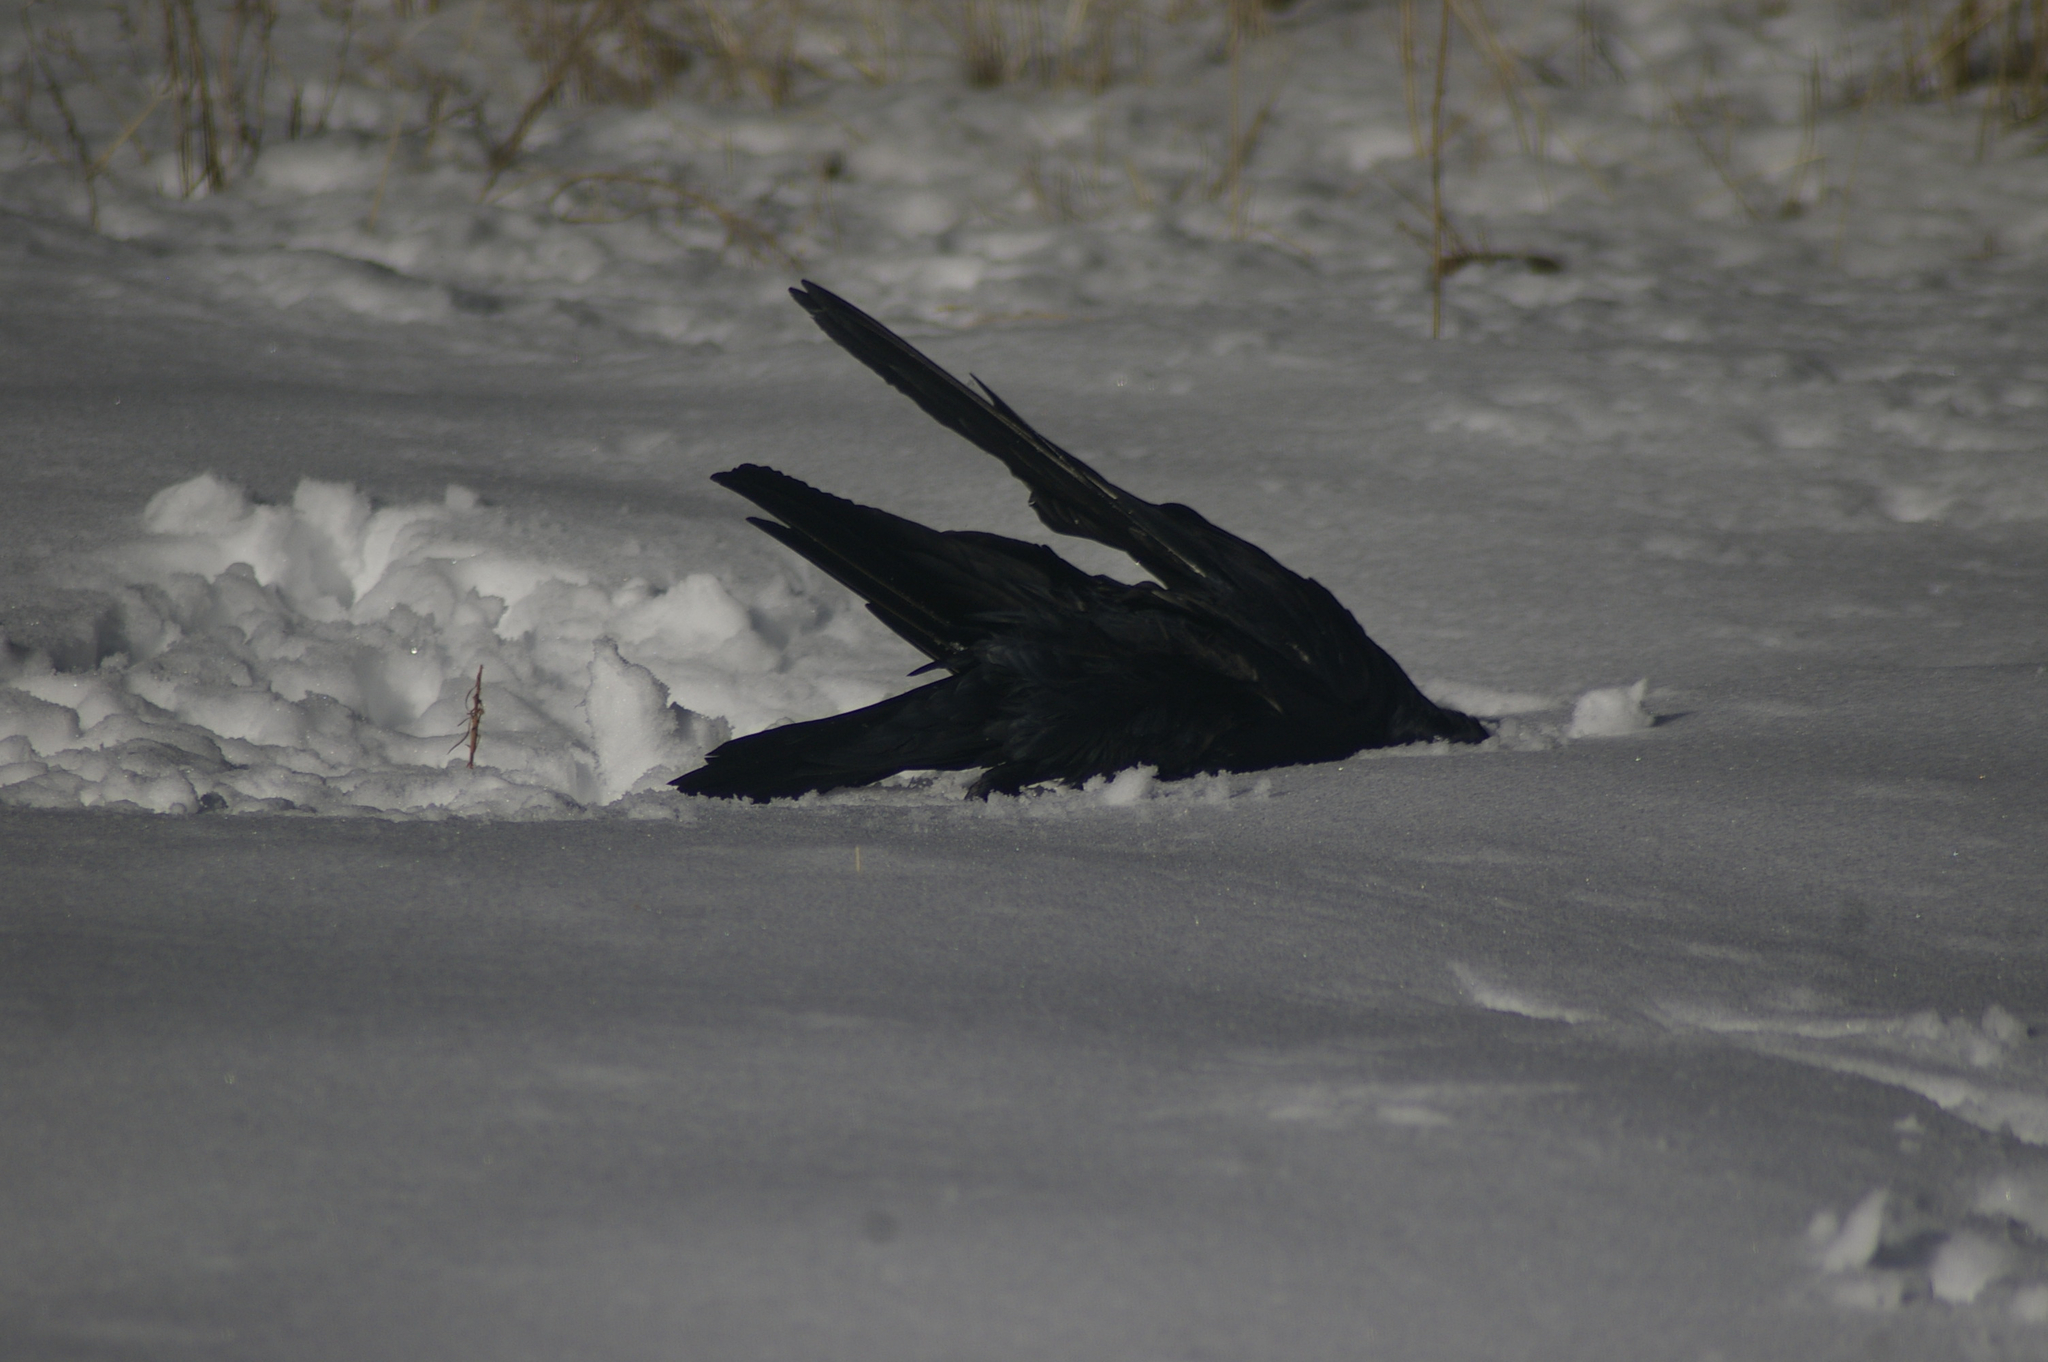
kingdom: Animalia
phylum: Chordata
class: Aves
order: Passeriformes
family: Corvidae
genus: Corvus
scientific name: Corvus corax
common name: Common raven
